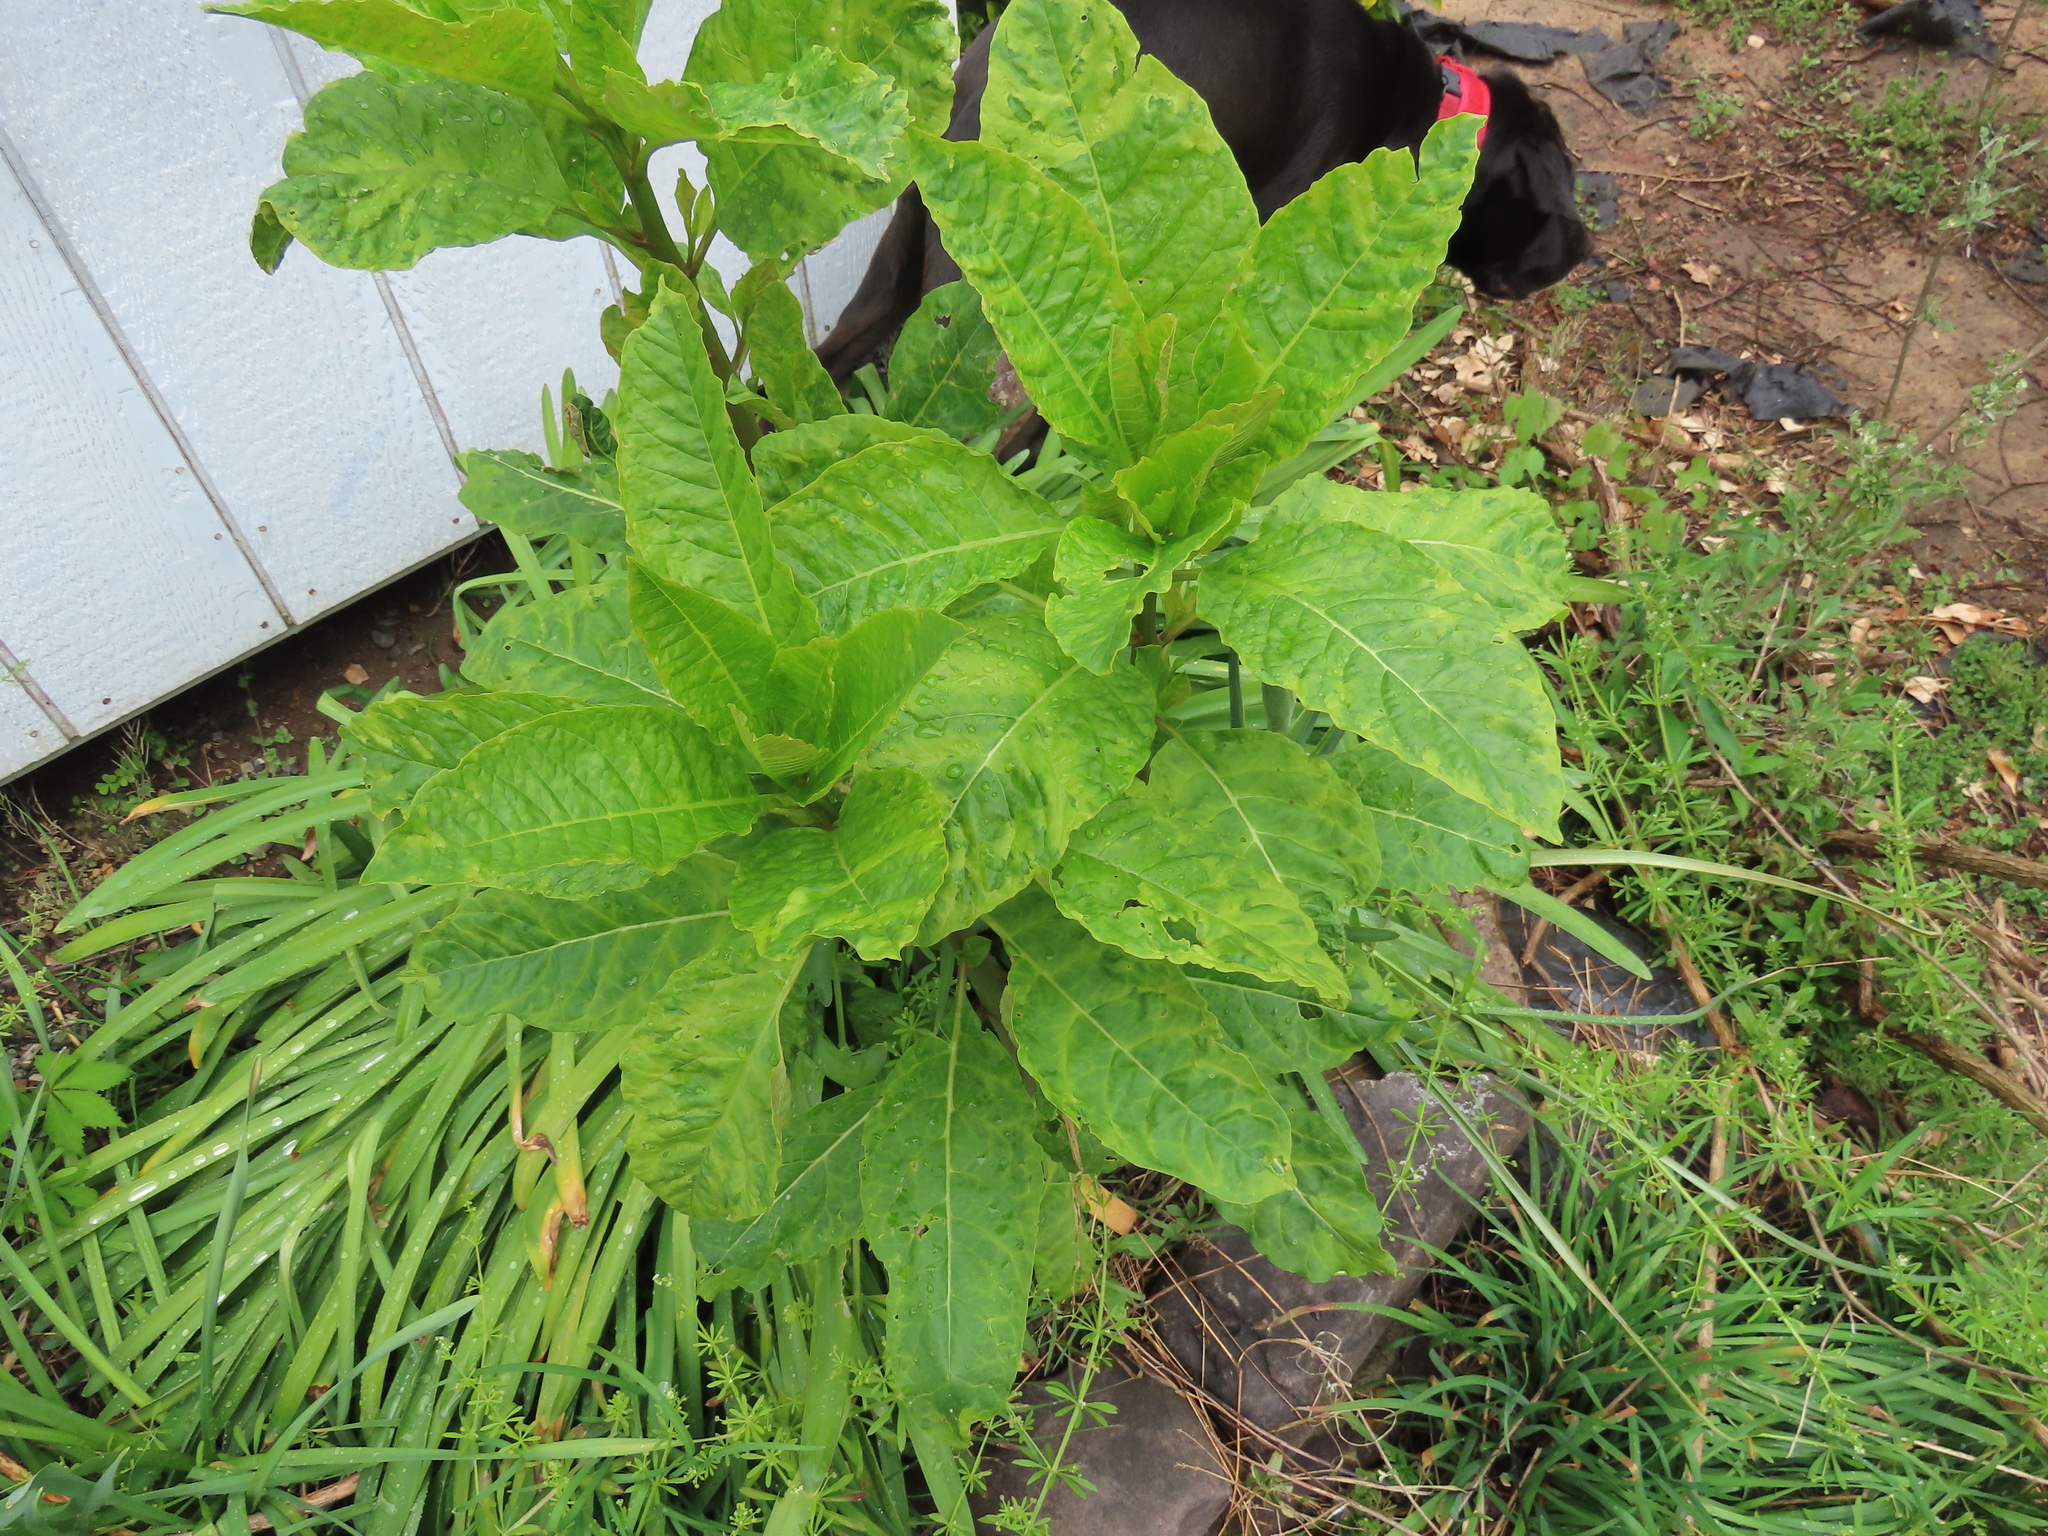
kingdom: Plantae
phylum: Tracheophyta
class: Magnoliopsida
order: Caryophyllales
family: Phytolaccaceae
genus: Phytolacca
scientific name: Phytolacca americana
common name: American pokeweed
